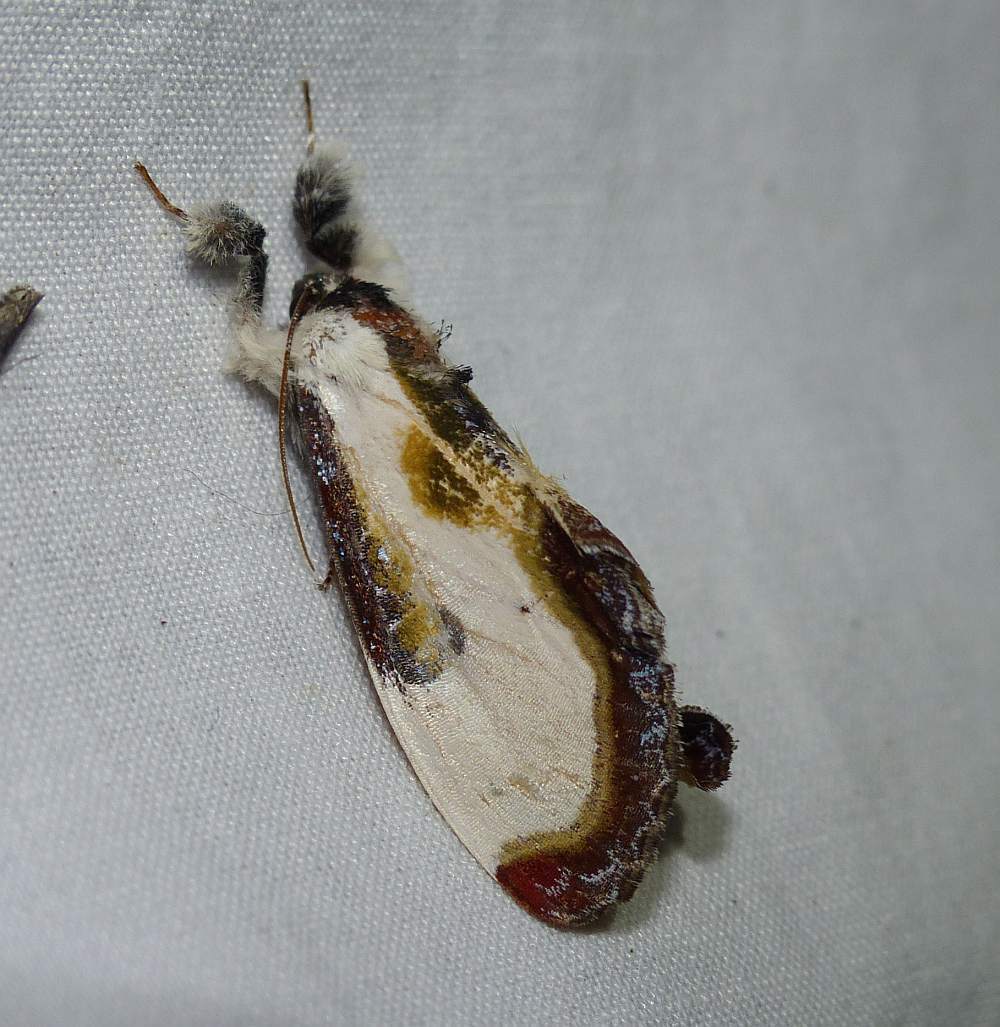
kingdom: Animalia
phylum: Arthropoda
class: Insecta
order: Lepidoptera
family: Noctuidae
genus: Eudryas
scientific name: Eudryas grata
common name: Beautiful wood-nymph
